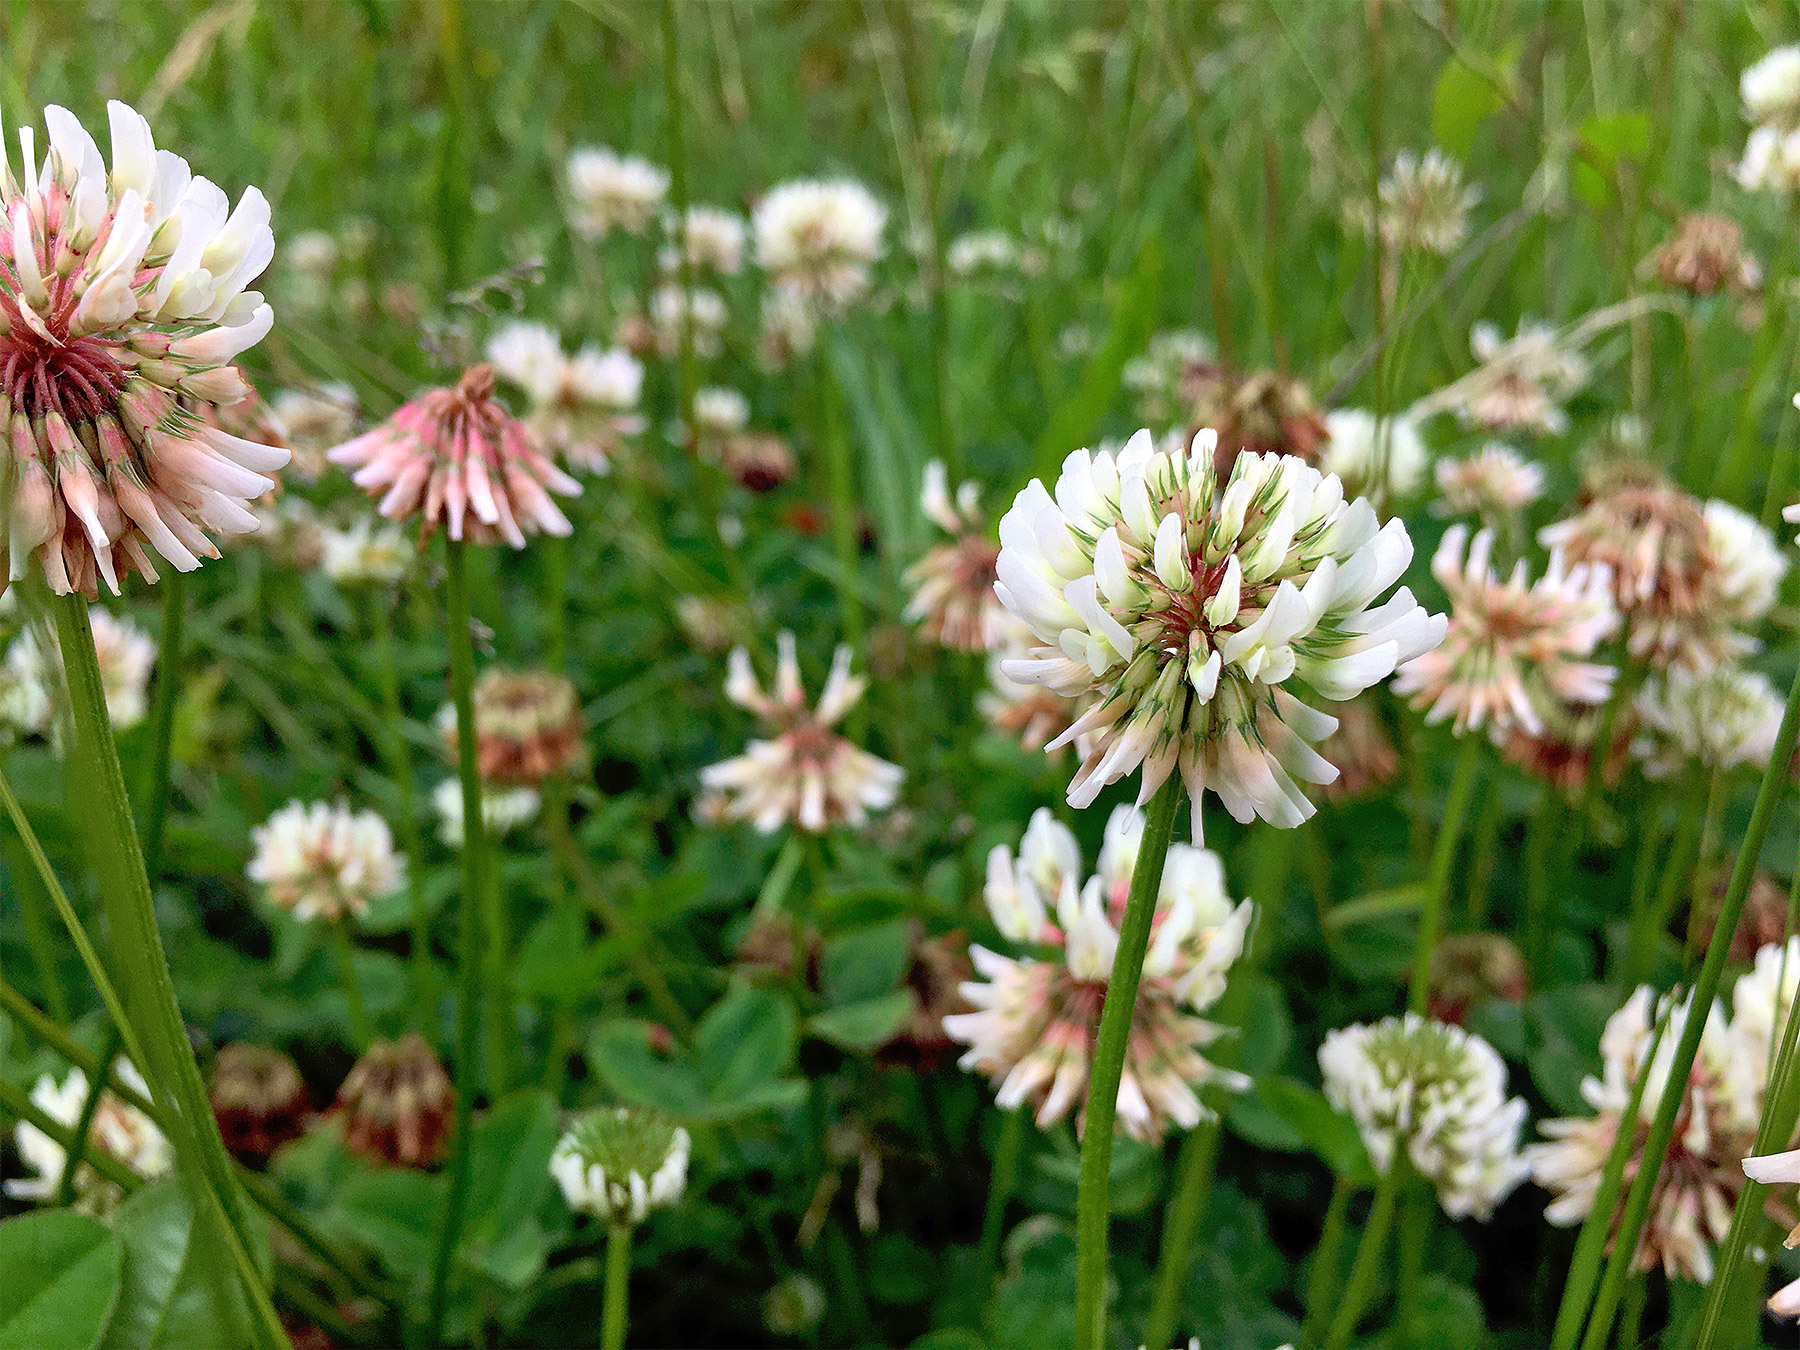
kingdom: Plantae
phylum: Tracheophyta
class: Magnoliopsida
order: Fabales
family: Fabaceae
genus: Trifolium
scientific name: Trifolium repens
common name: White clover
